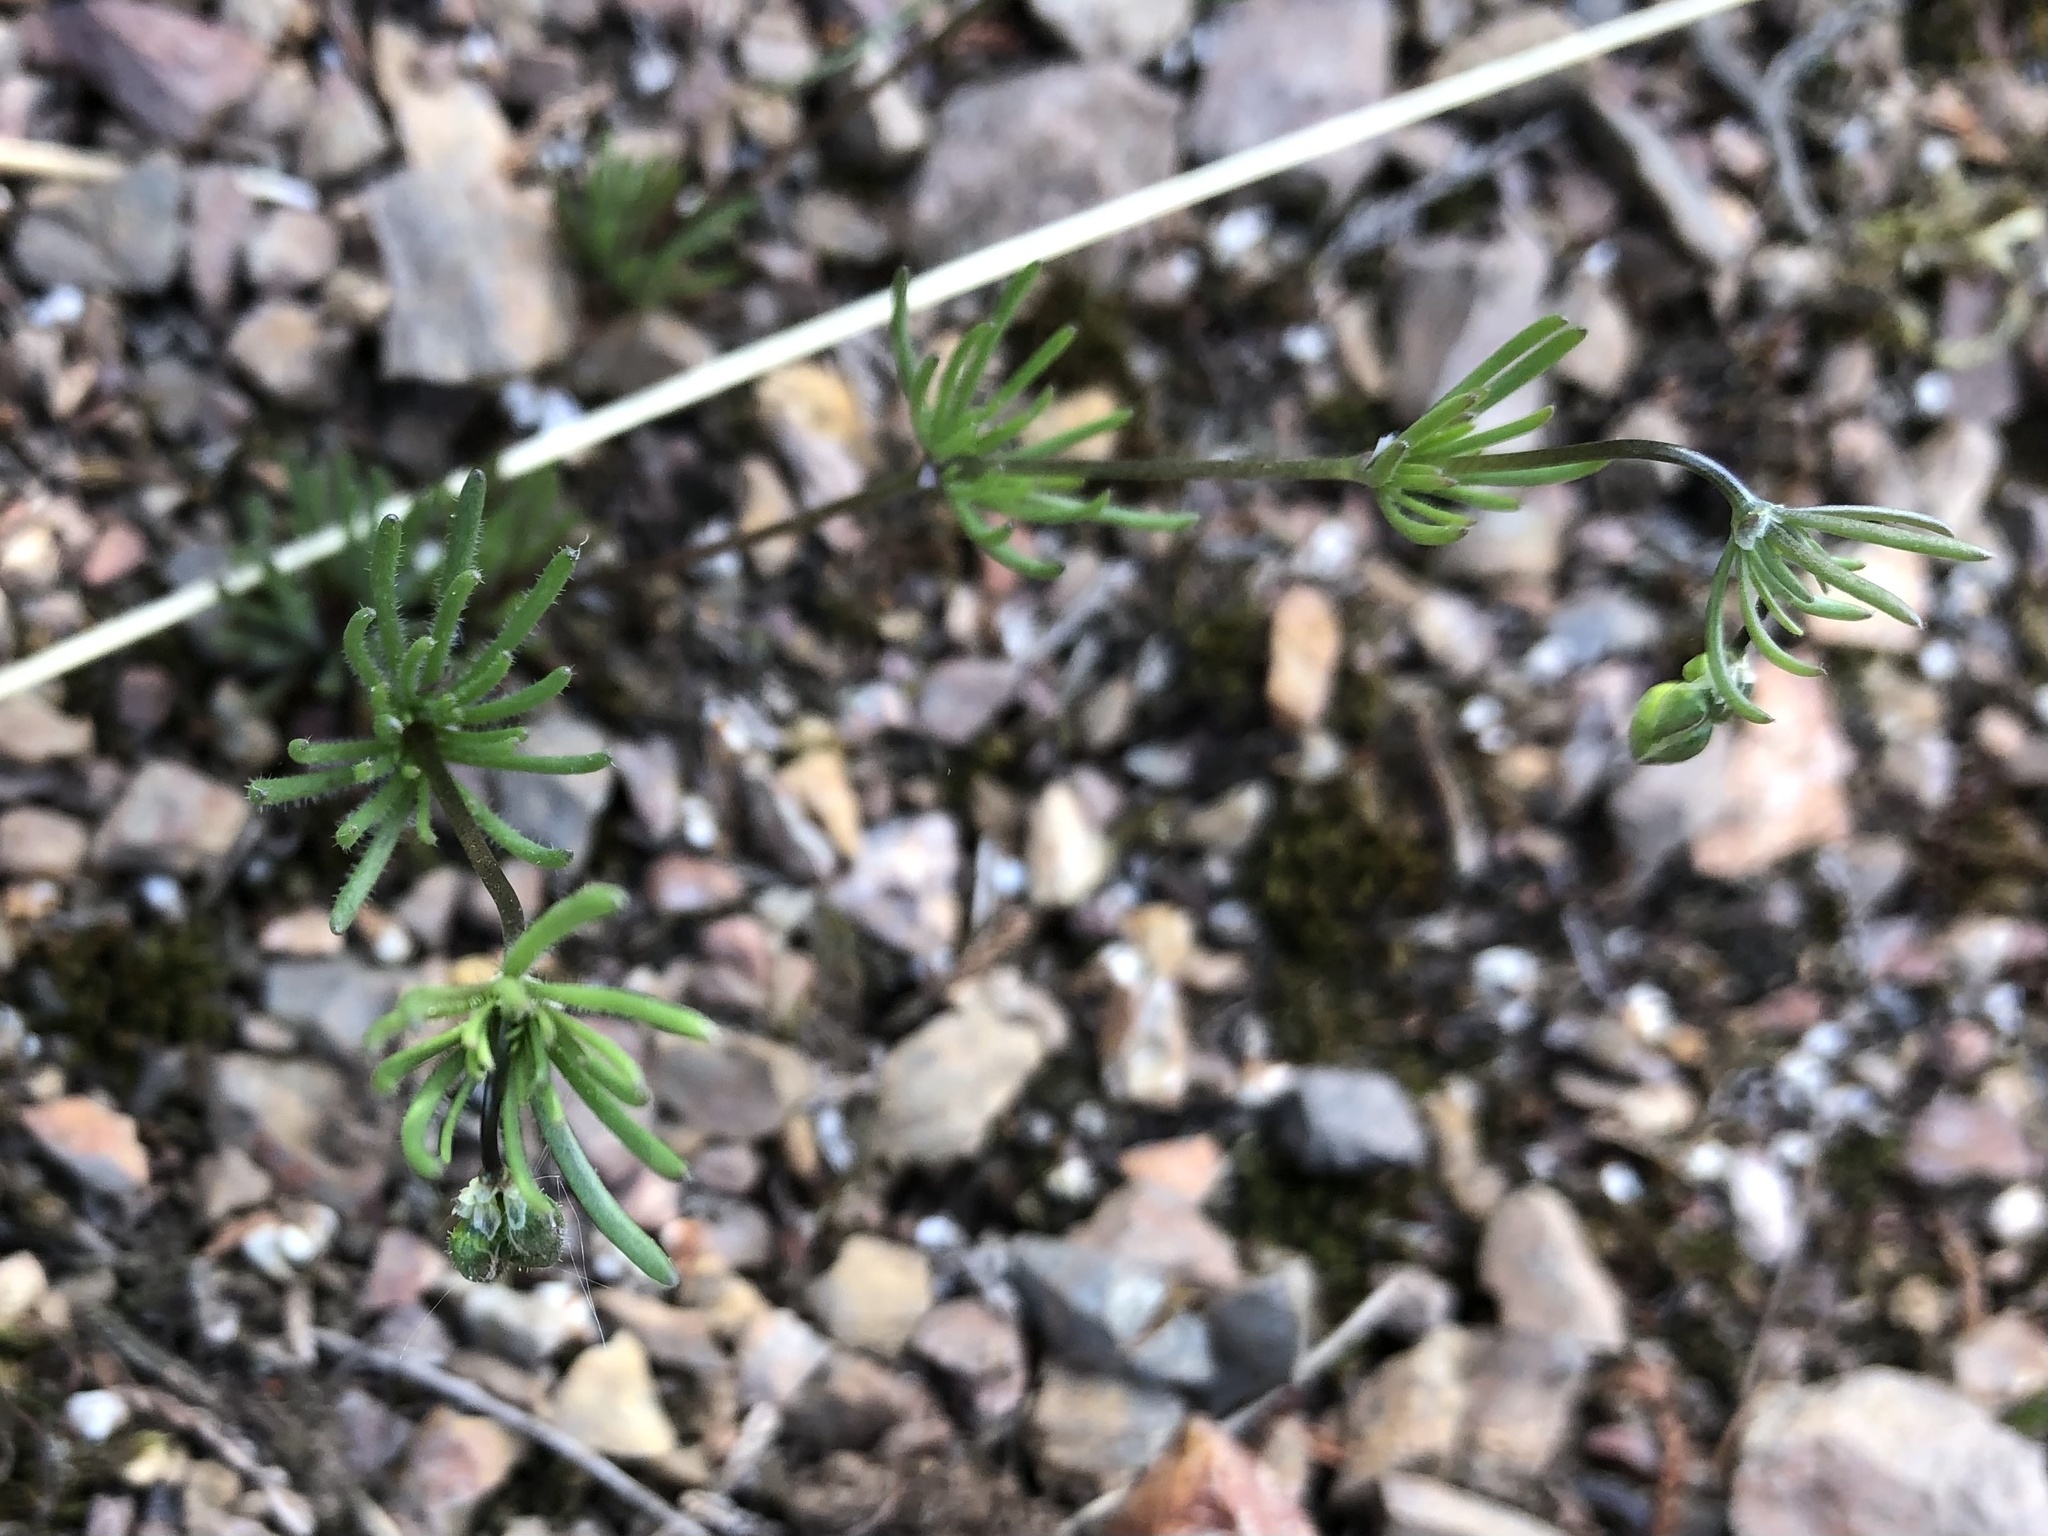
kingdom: Plantae
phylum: Tracheophyta
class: Magnoliopsida
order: Caryophyllales
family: Caryophyllaceae
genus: Spergula
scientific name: Spergula morisonii
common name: Pearlwort spurrey
